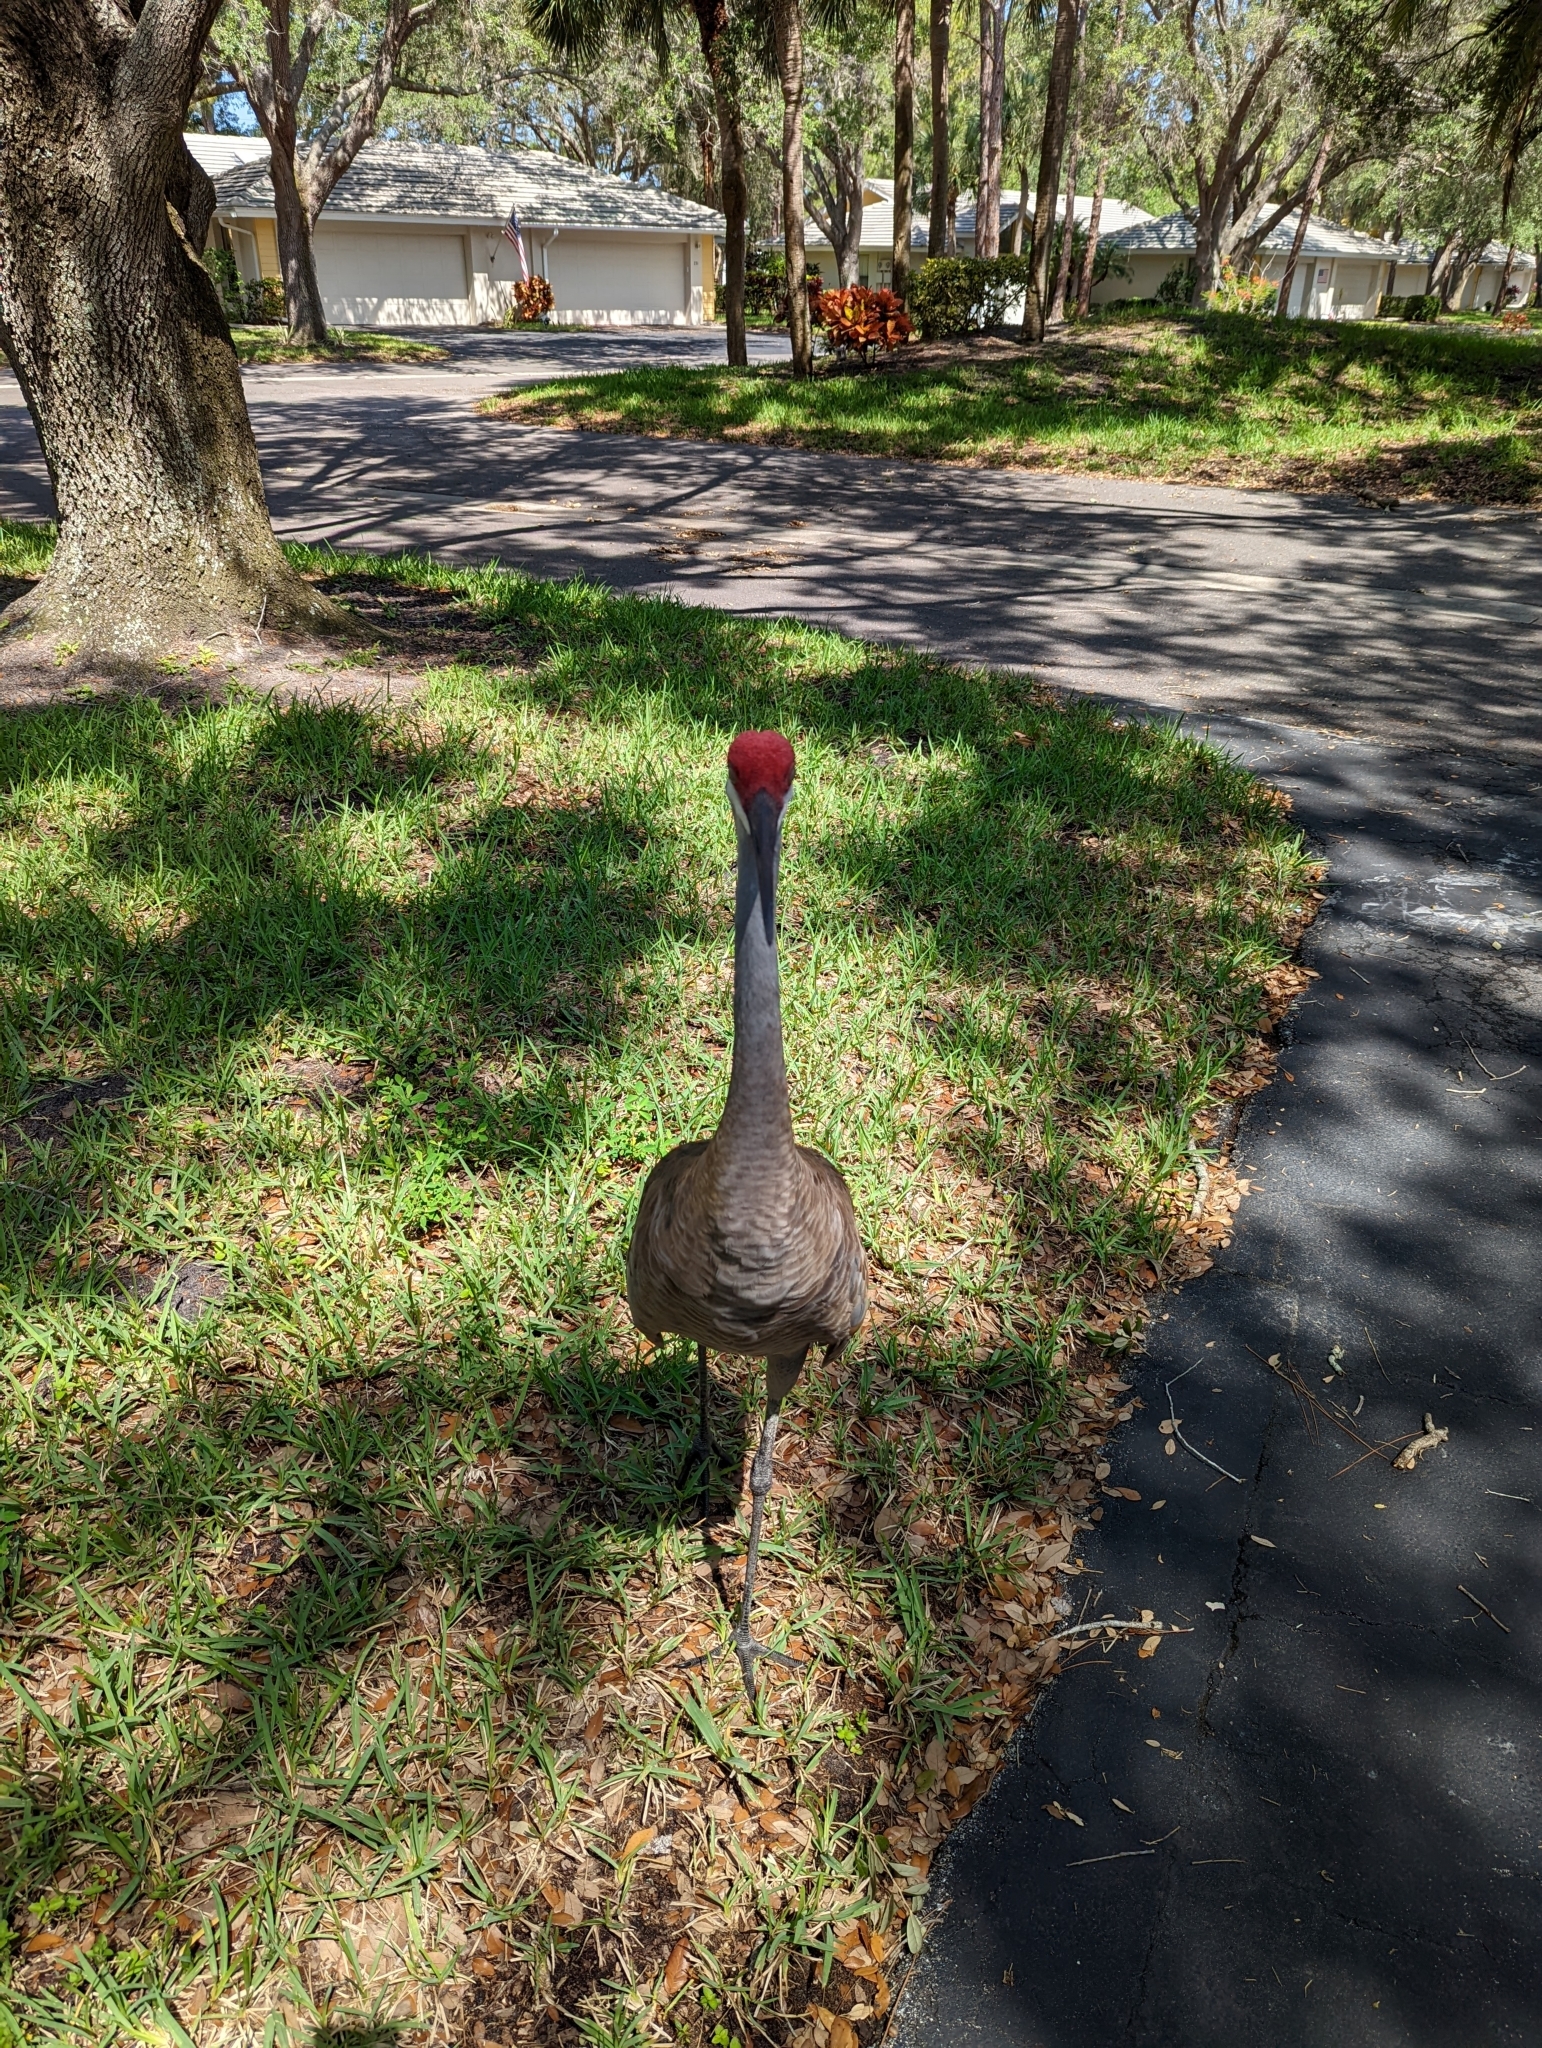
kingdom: Animalia
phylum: Chordata
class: Aves
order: Gruiformes
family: Gruidae
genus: Grus
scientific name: Grus canadensis
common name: Sandhill crane
